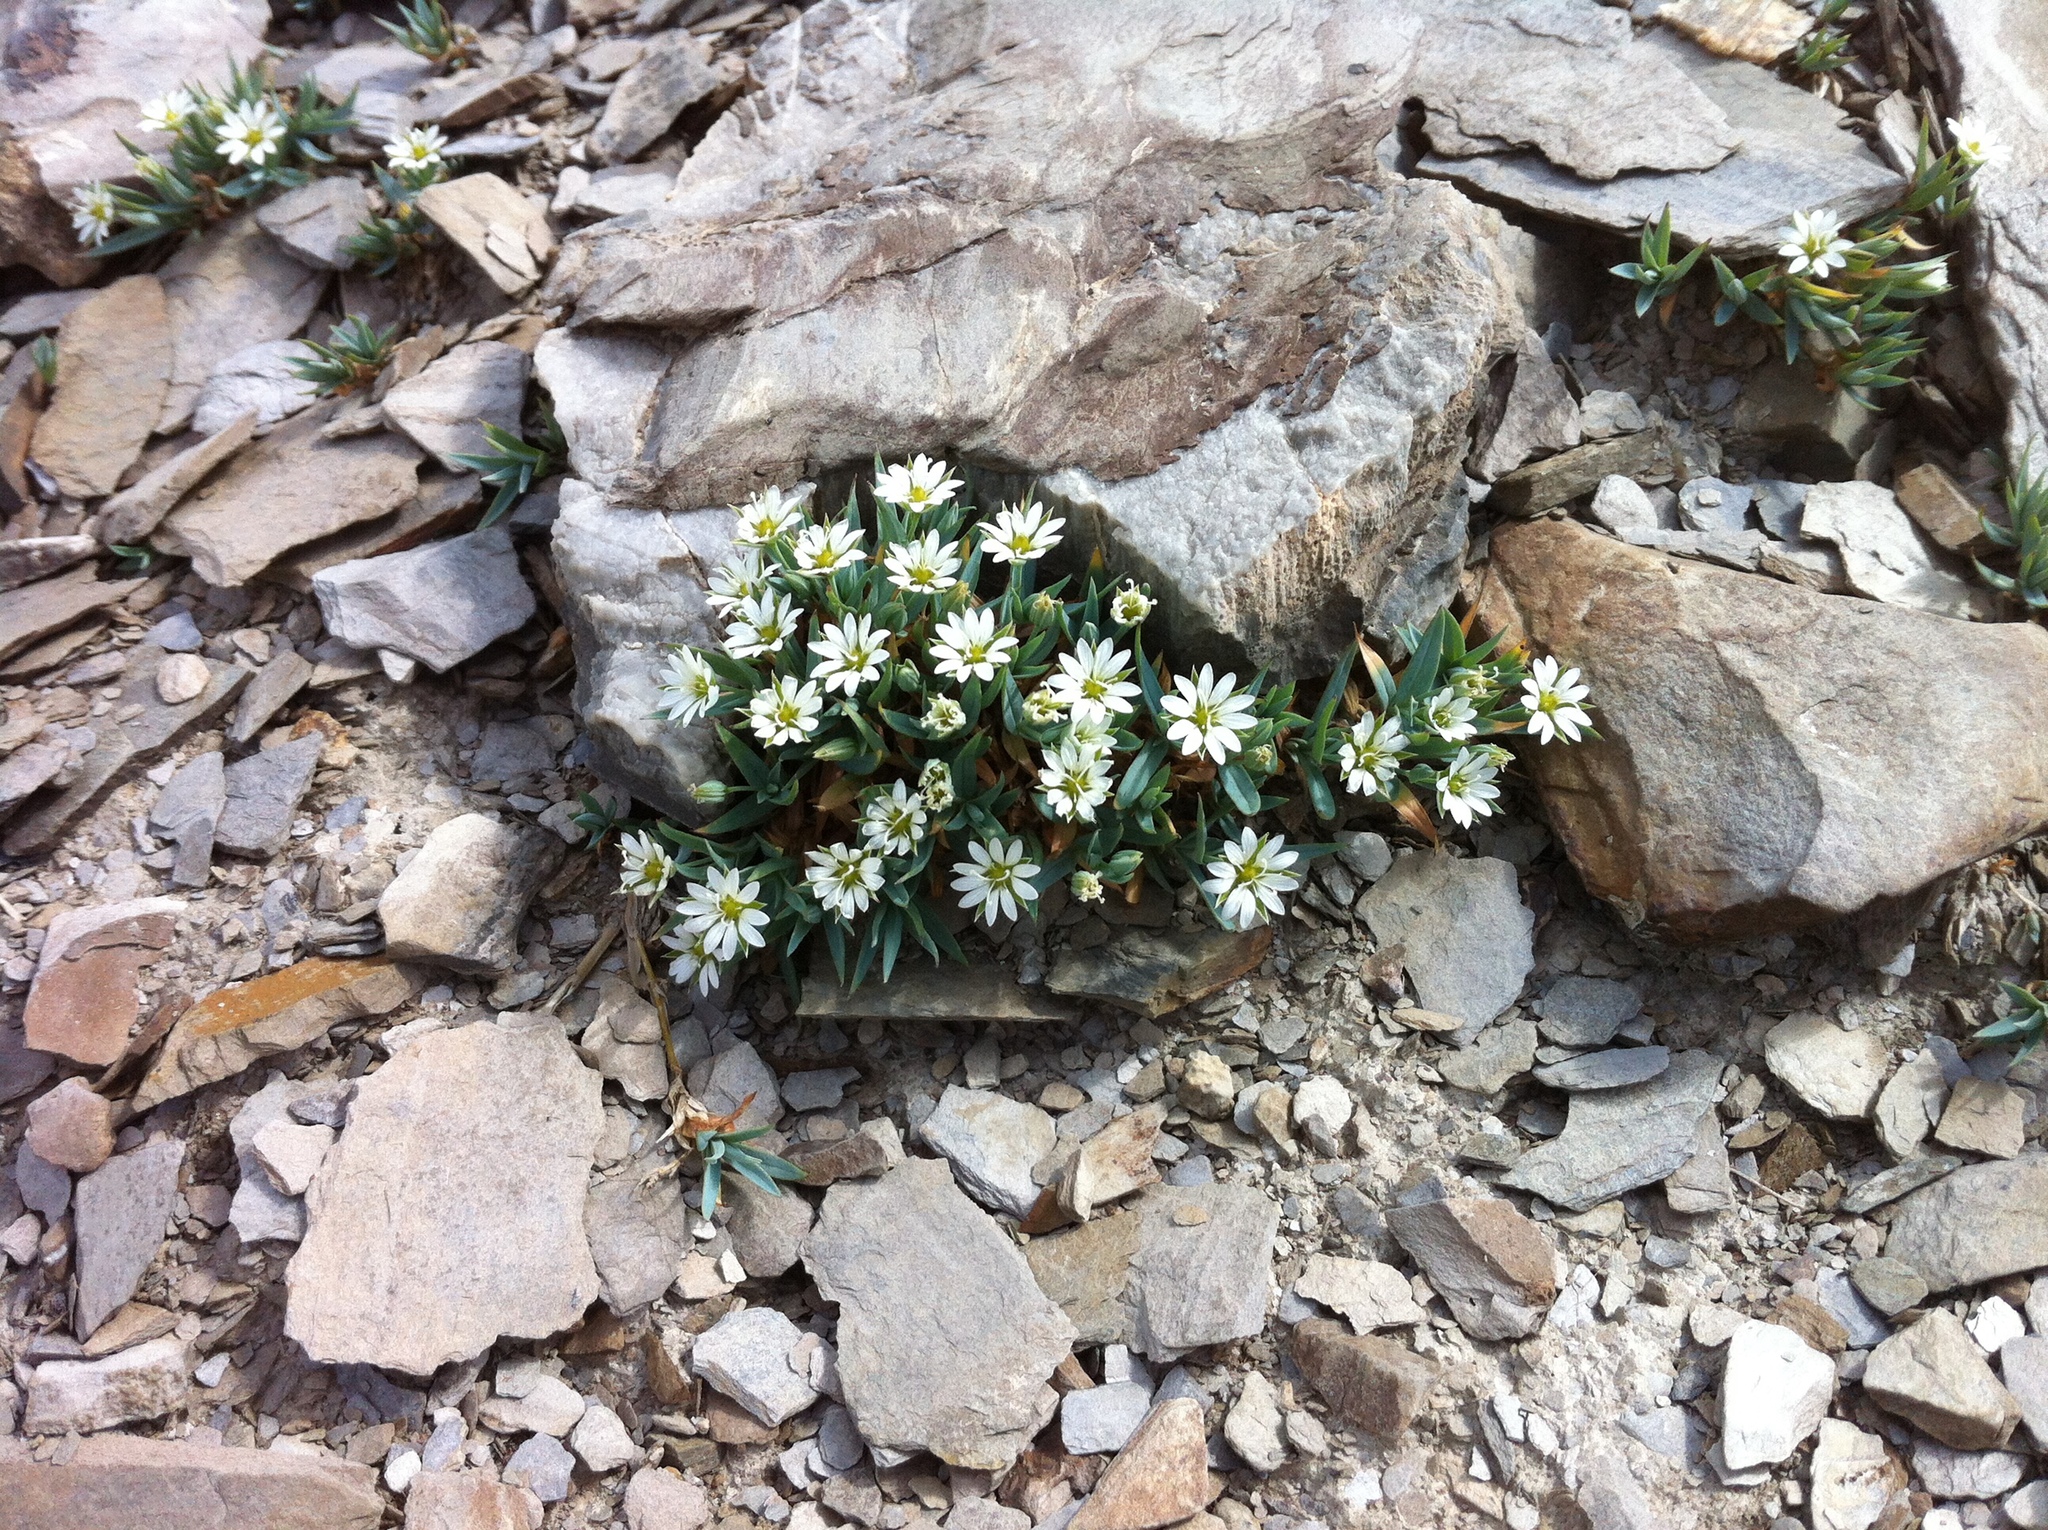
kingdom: Plantae
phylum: Tracheophyta
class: Magnoliopsida
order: Caryophyllales
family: Caryophyllaceae
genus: Stellaria
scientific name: Stellaria longipes
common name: Goldie's starwort
